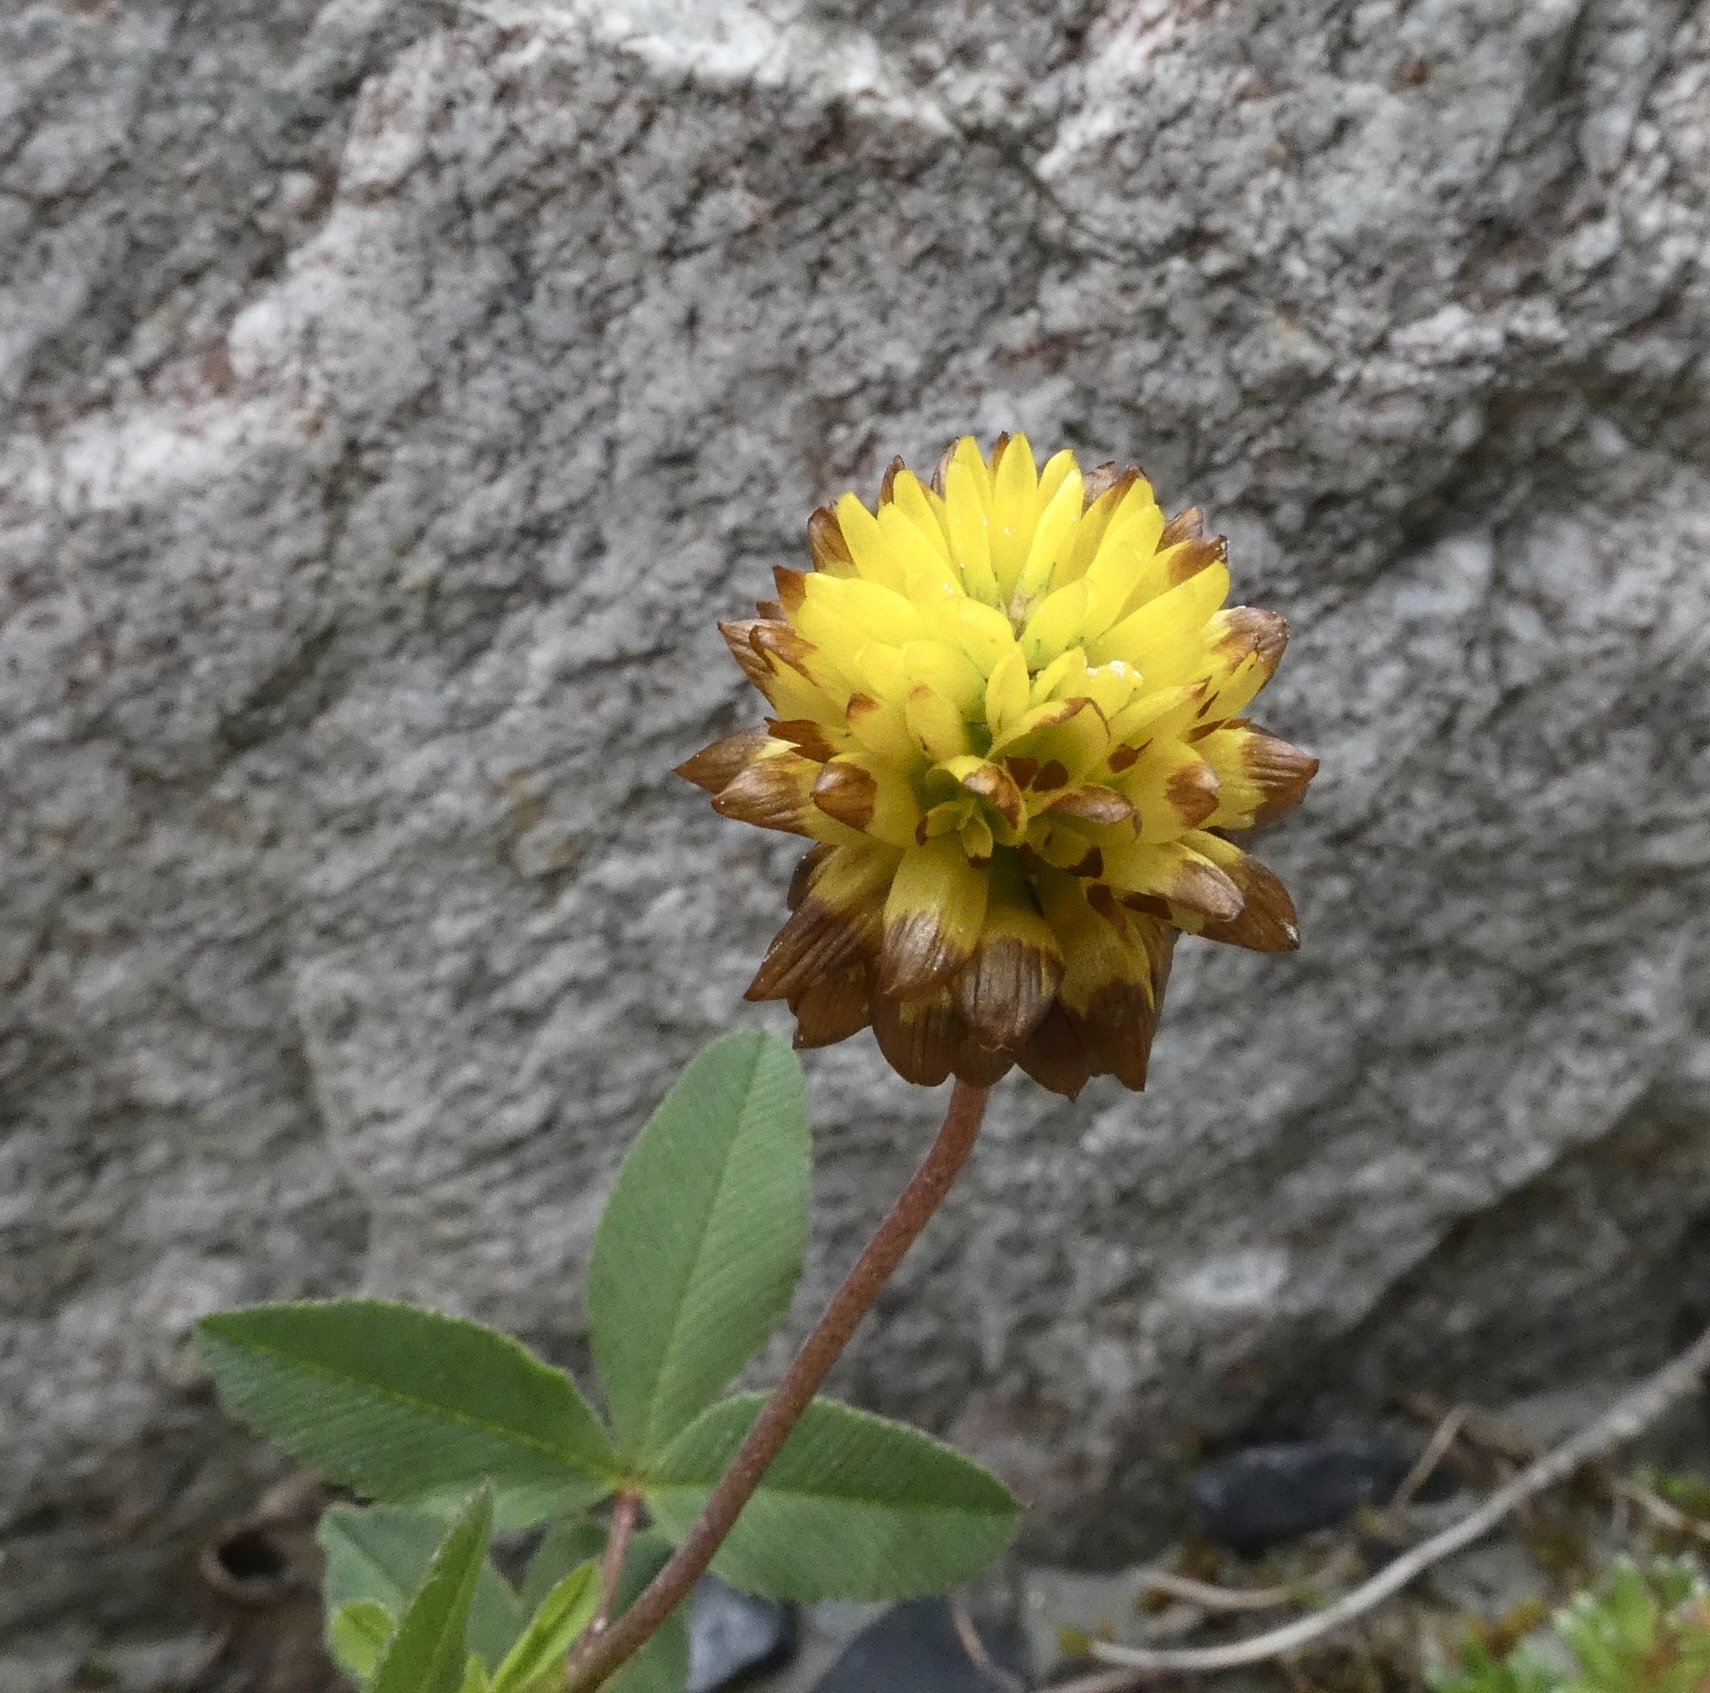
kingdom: Plantae
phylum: Tracheophyta
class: Magnoliopsida
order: Fabales
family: Fabaceae
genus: Trifolium
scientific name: Trifolium badium
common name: Brown clover
